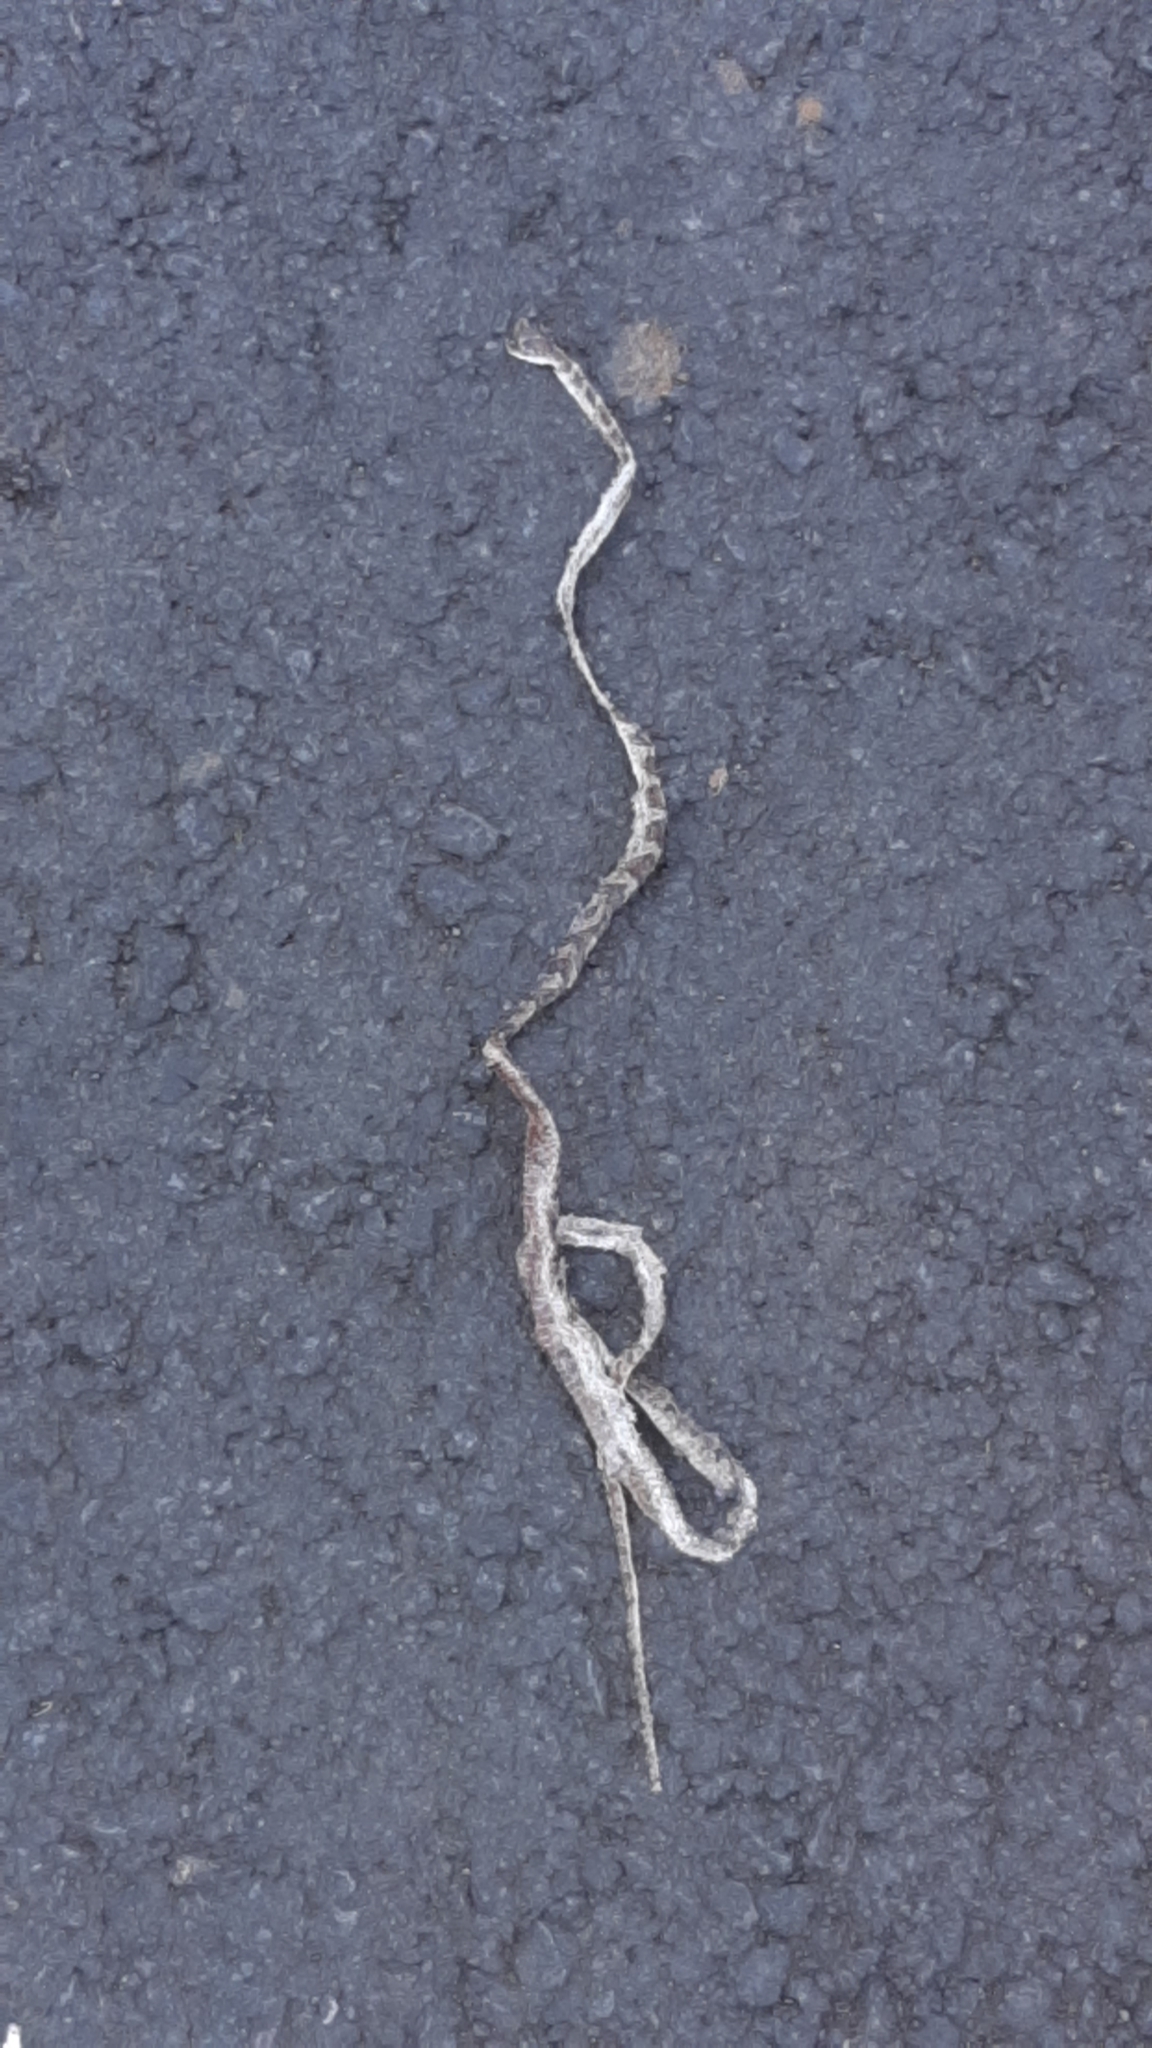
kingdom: Animalia
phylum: Chordata
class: Squamata
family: Colubridae
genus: Senticolis
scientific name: Senticolis triaspis
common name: Green rat snake
